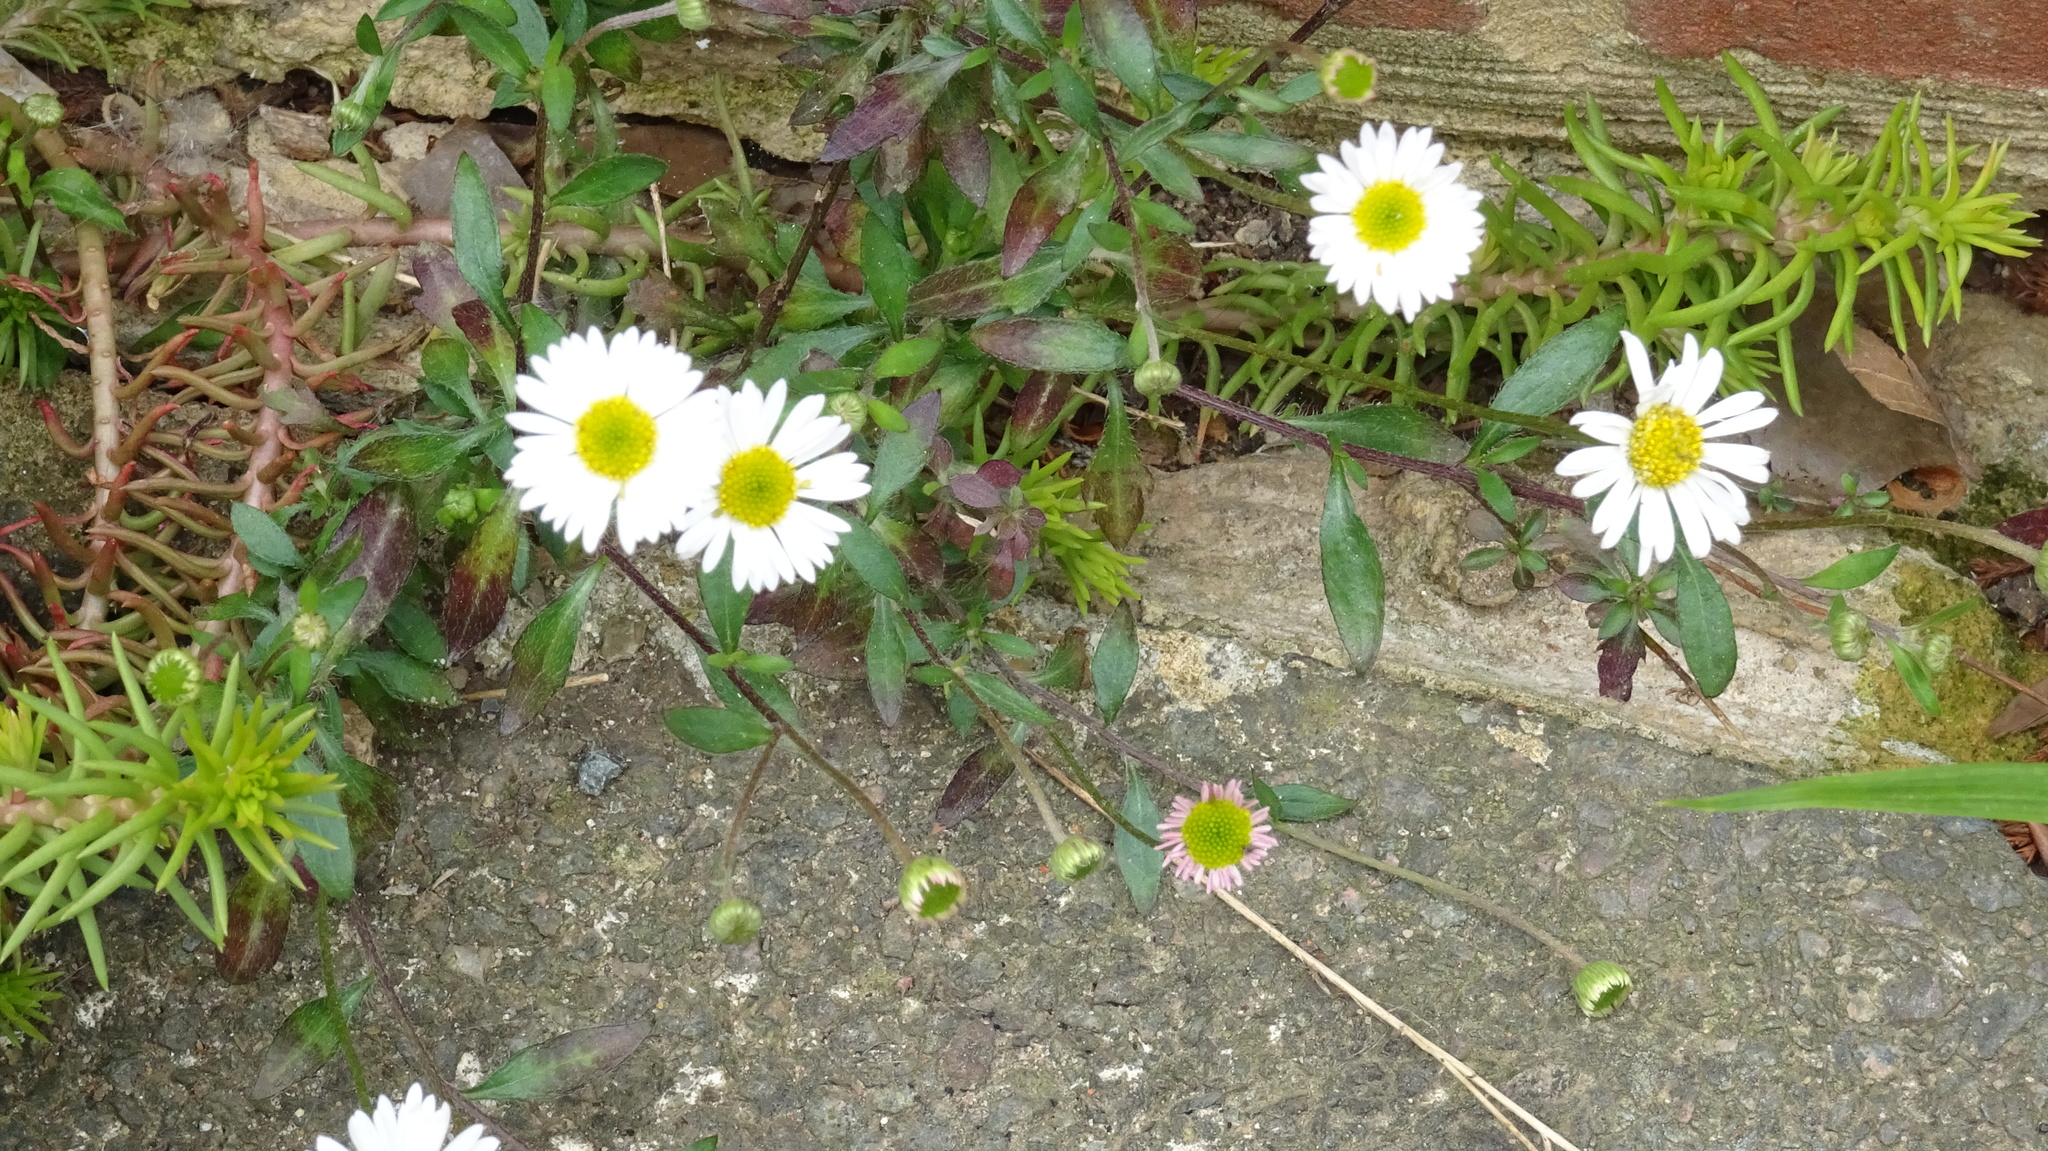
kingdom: Plantae
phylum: Tracheophyta
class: Magnoliopsida
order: Asterales
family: Asteraceae
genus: Erigeron
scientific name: Erigeron karvinskianus
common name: Mexican fleabane
